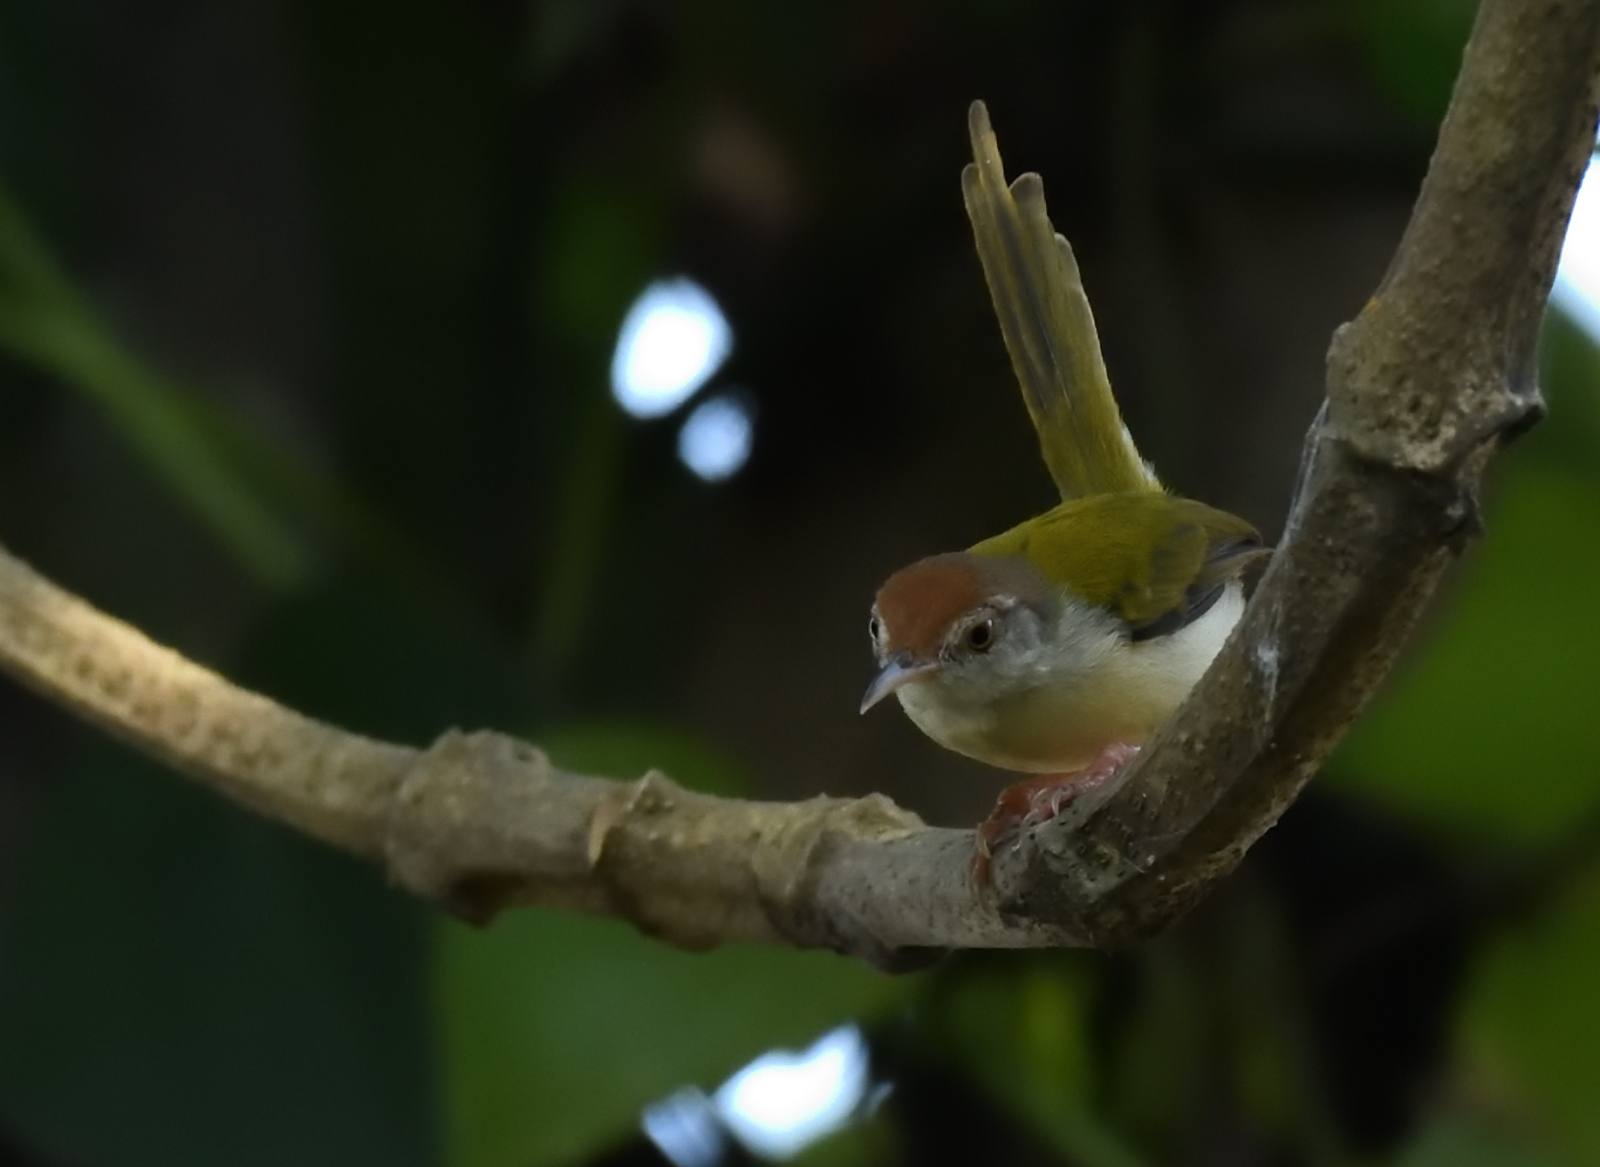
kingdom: Animalia
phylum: Chordata
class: Aves
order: Passeriformes
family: Cisticolidae
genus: Orthotomus
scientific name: Orthotomus sutorius
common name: Common tailorbird
